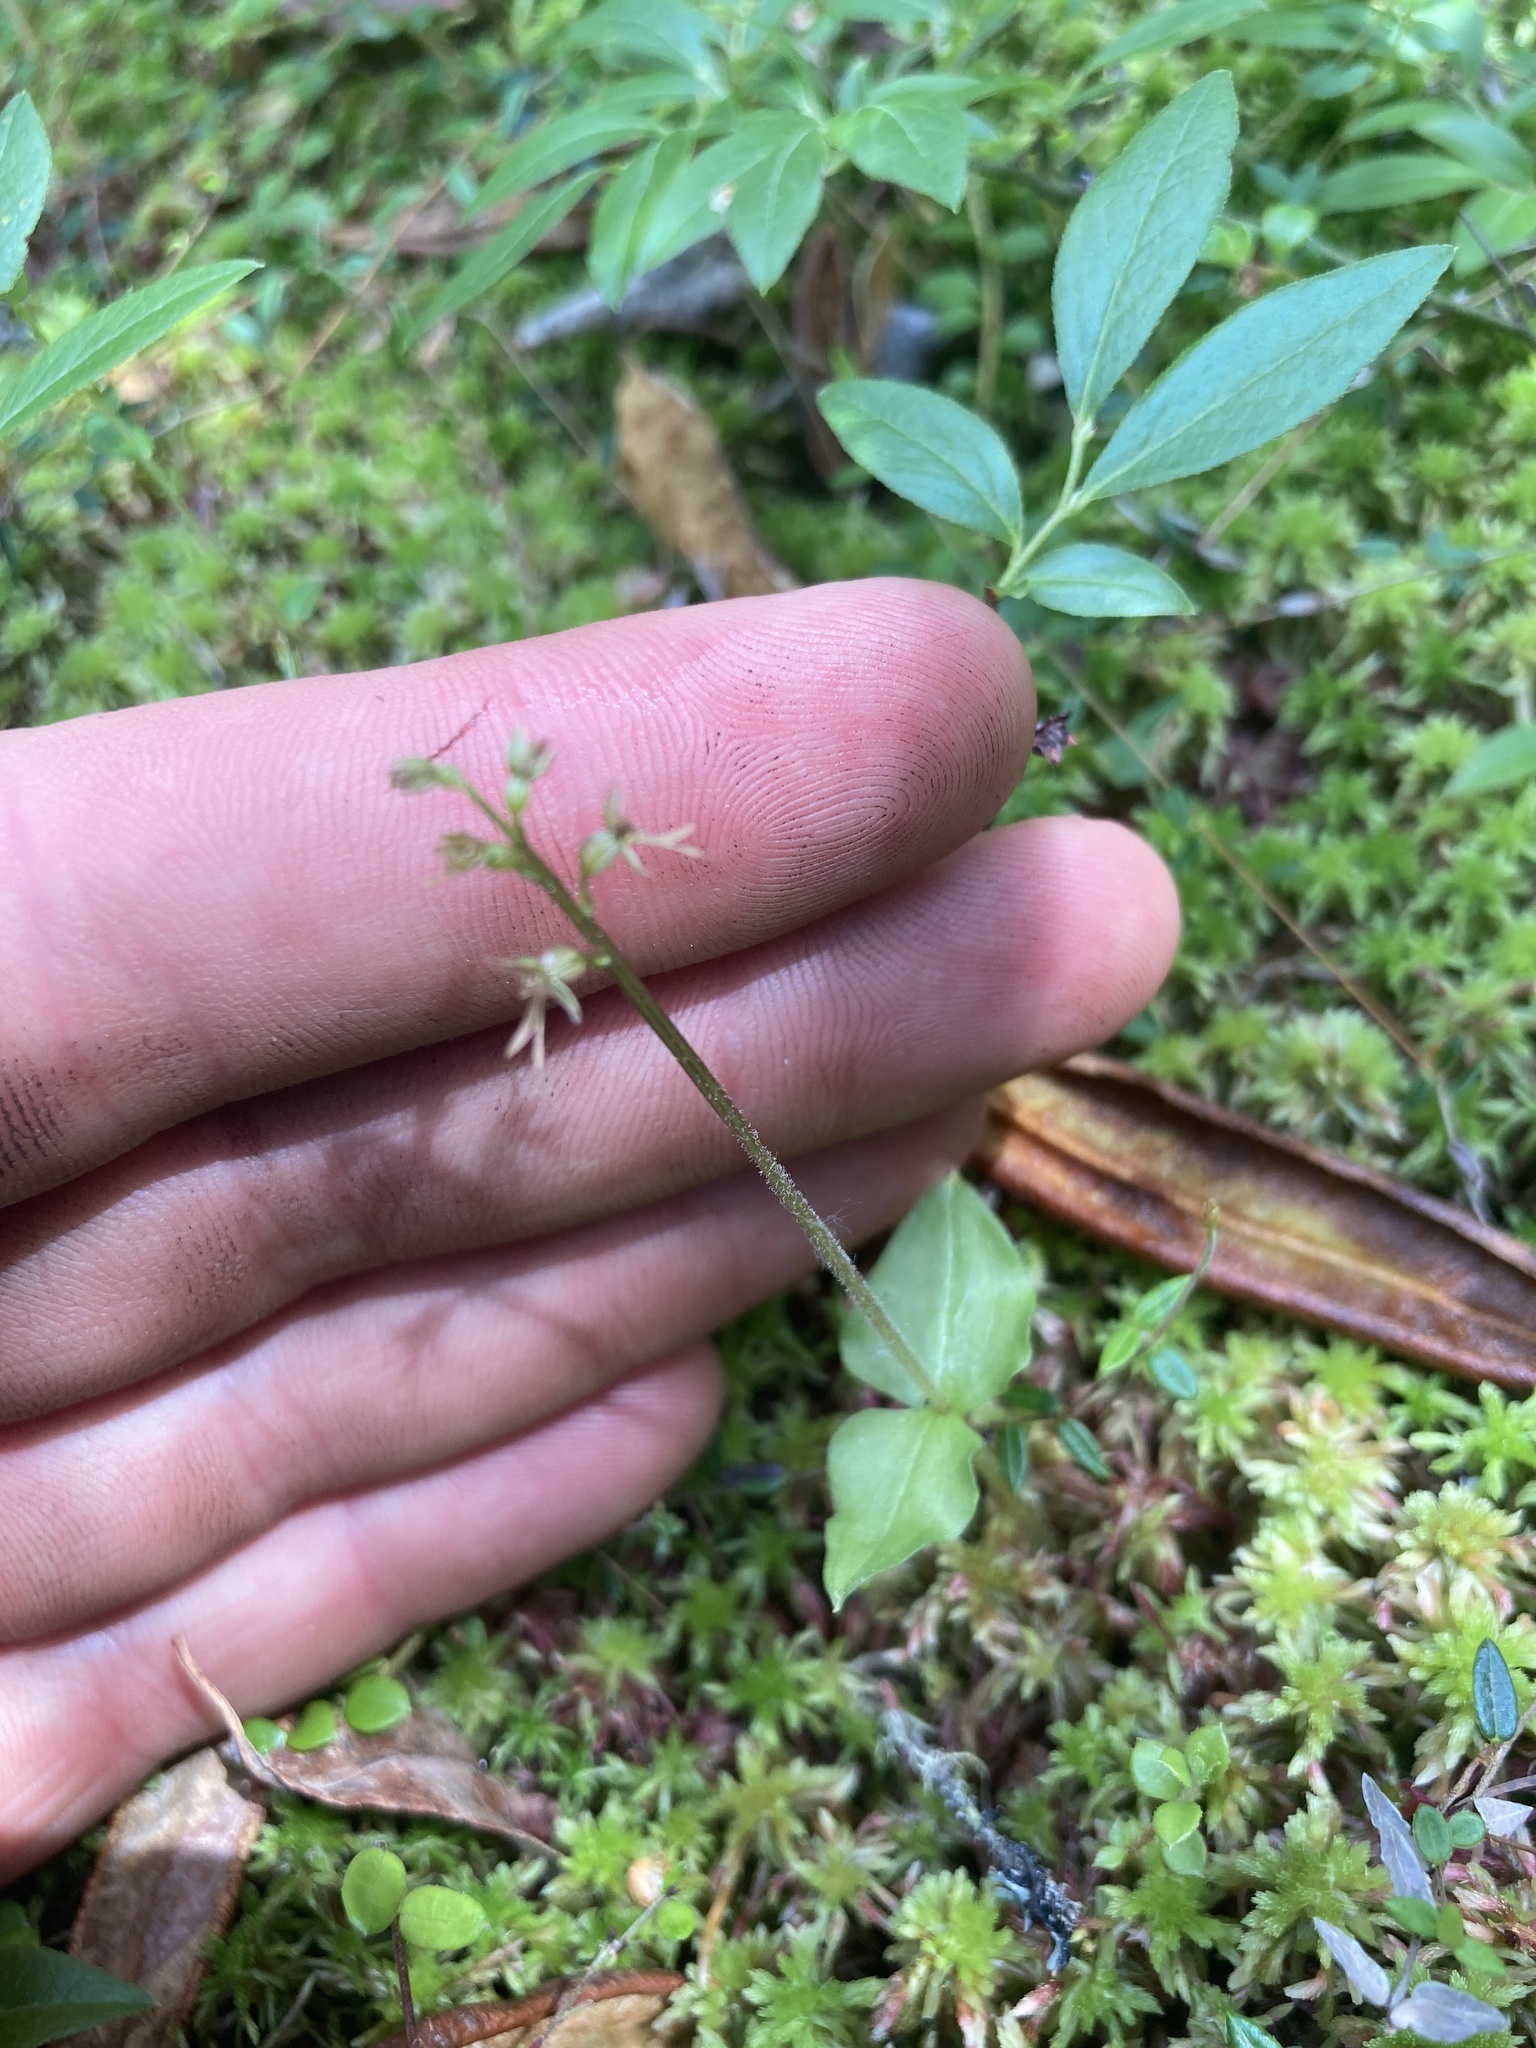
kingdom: Plantae
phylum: Tracheophyta
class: Liliopsida
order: Asparagales
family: Orchidaceae
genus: Neottia
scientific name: Neottia cordata
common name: Lesser twayblade
